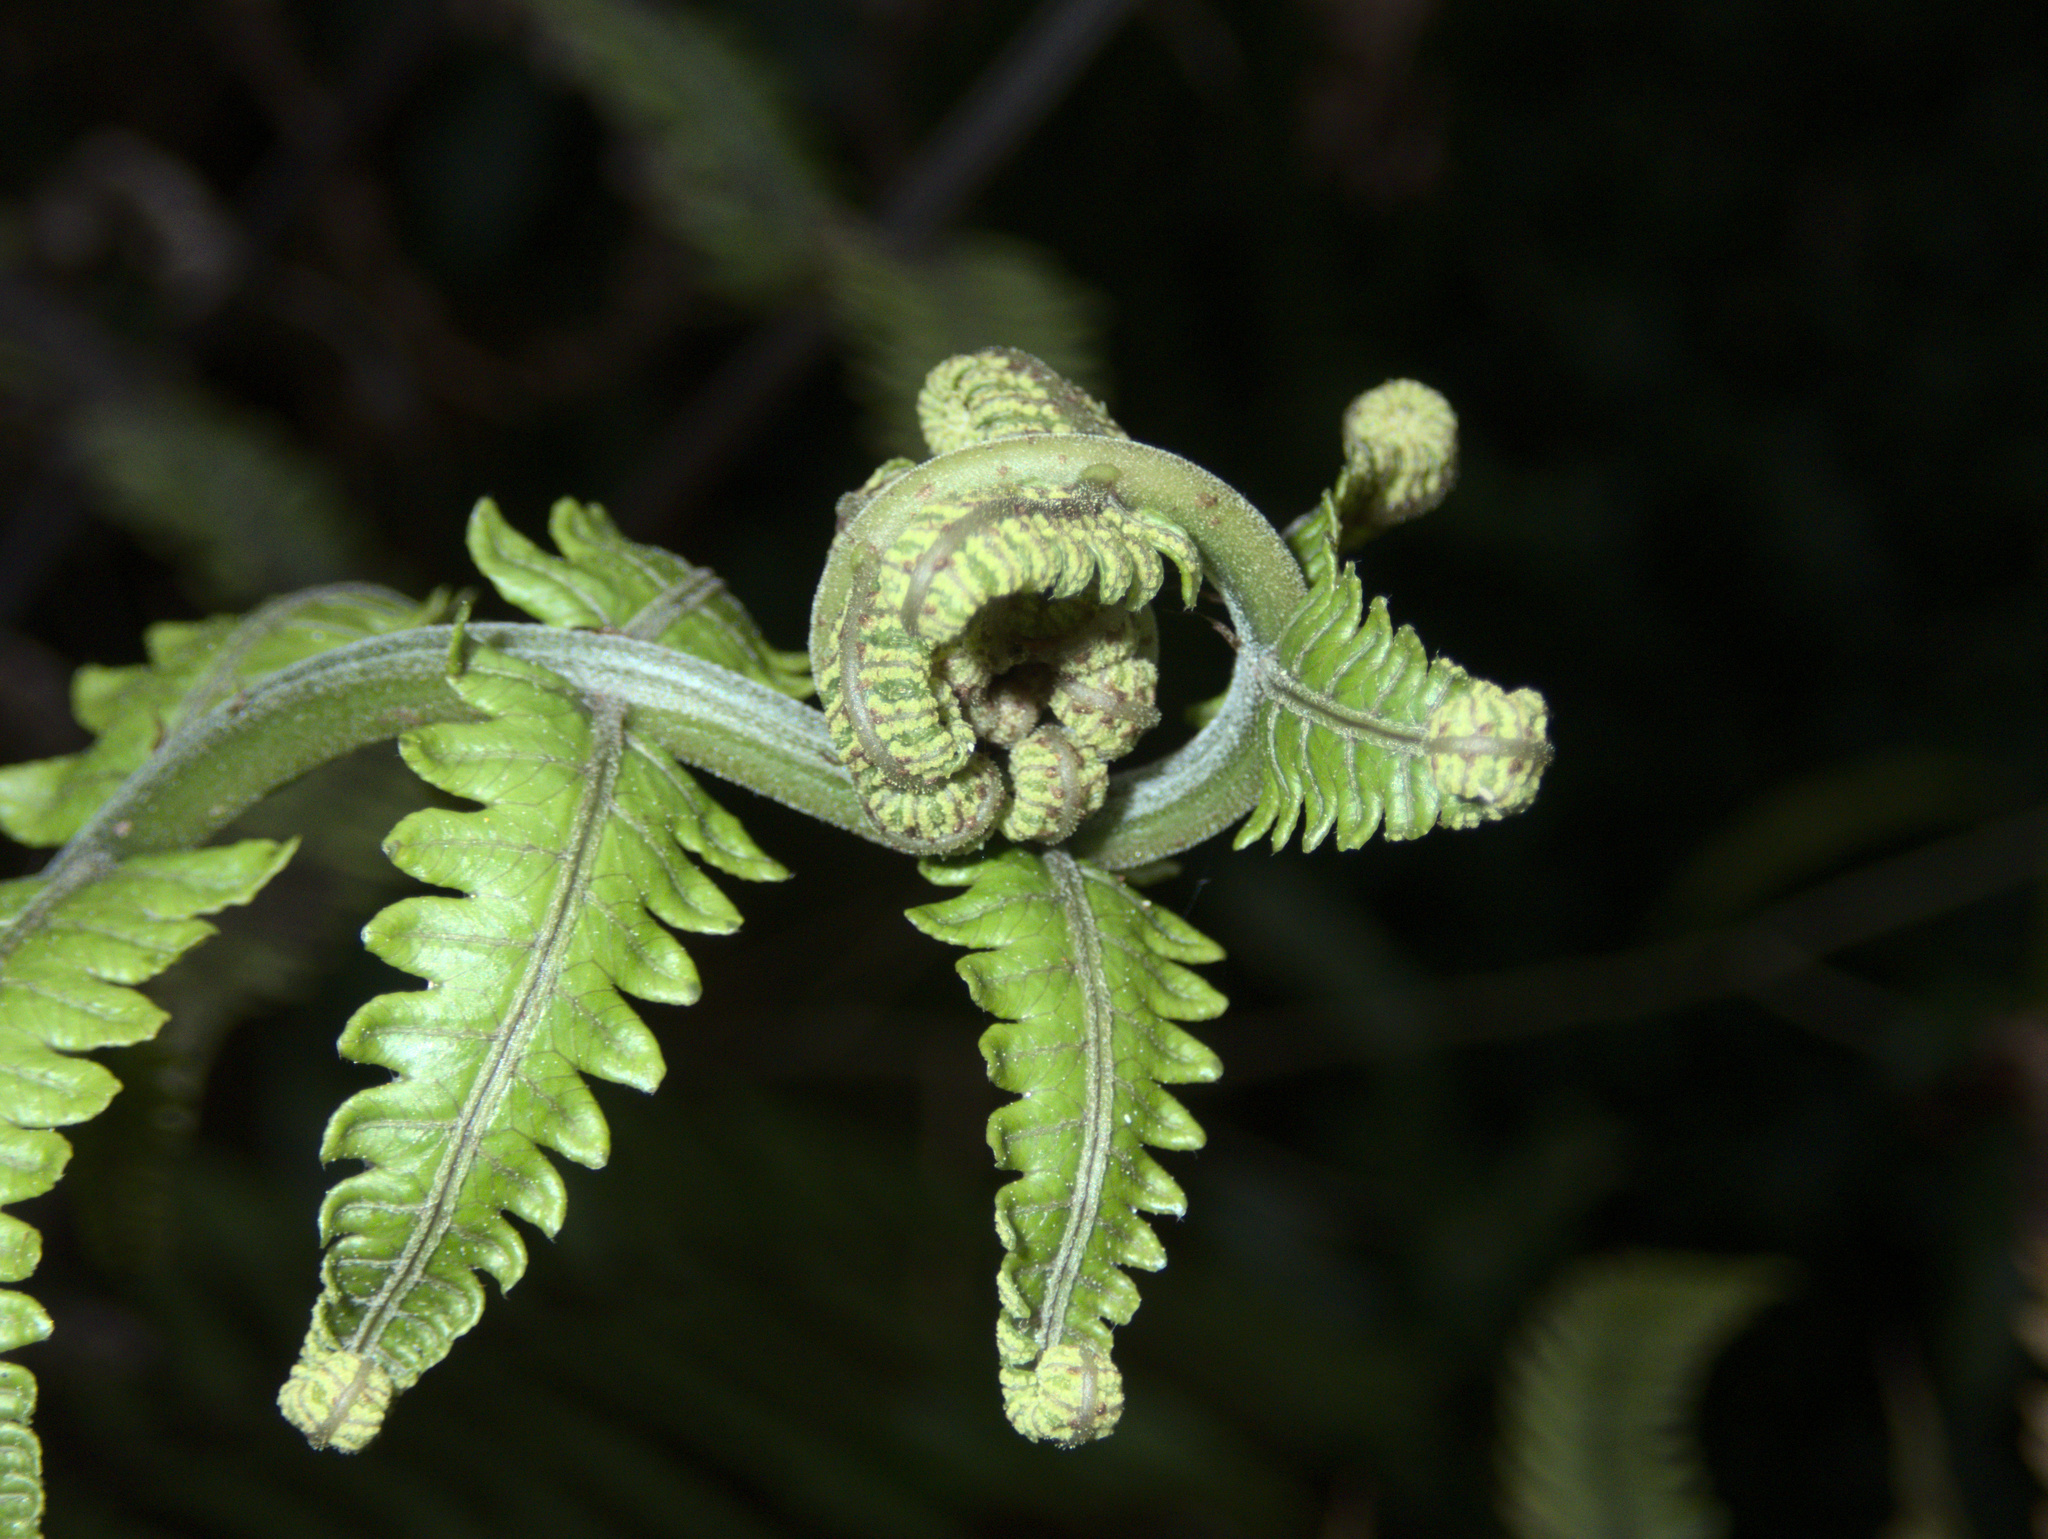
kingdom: Plantae
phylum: Tracheophyta
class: Polypodiopsida
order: Polypodiales
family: Thelypteridaceae
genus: Pakau
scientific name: Pakau pennigera
